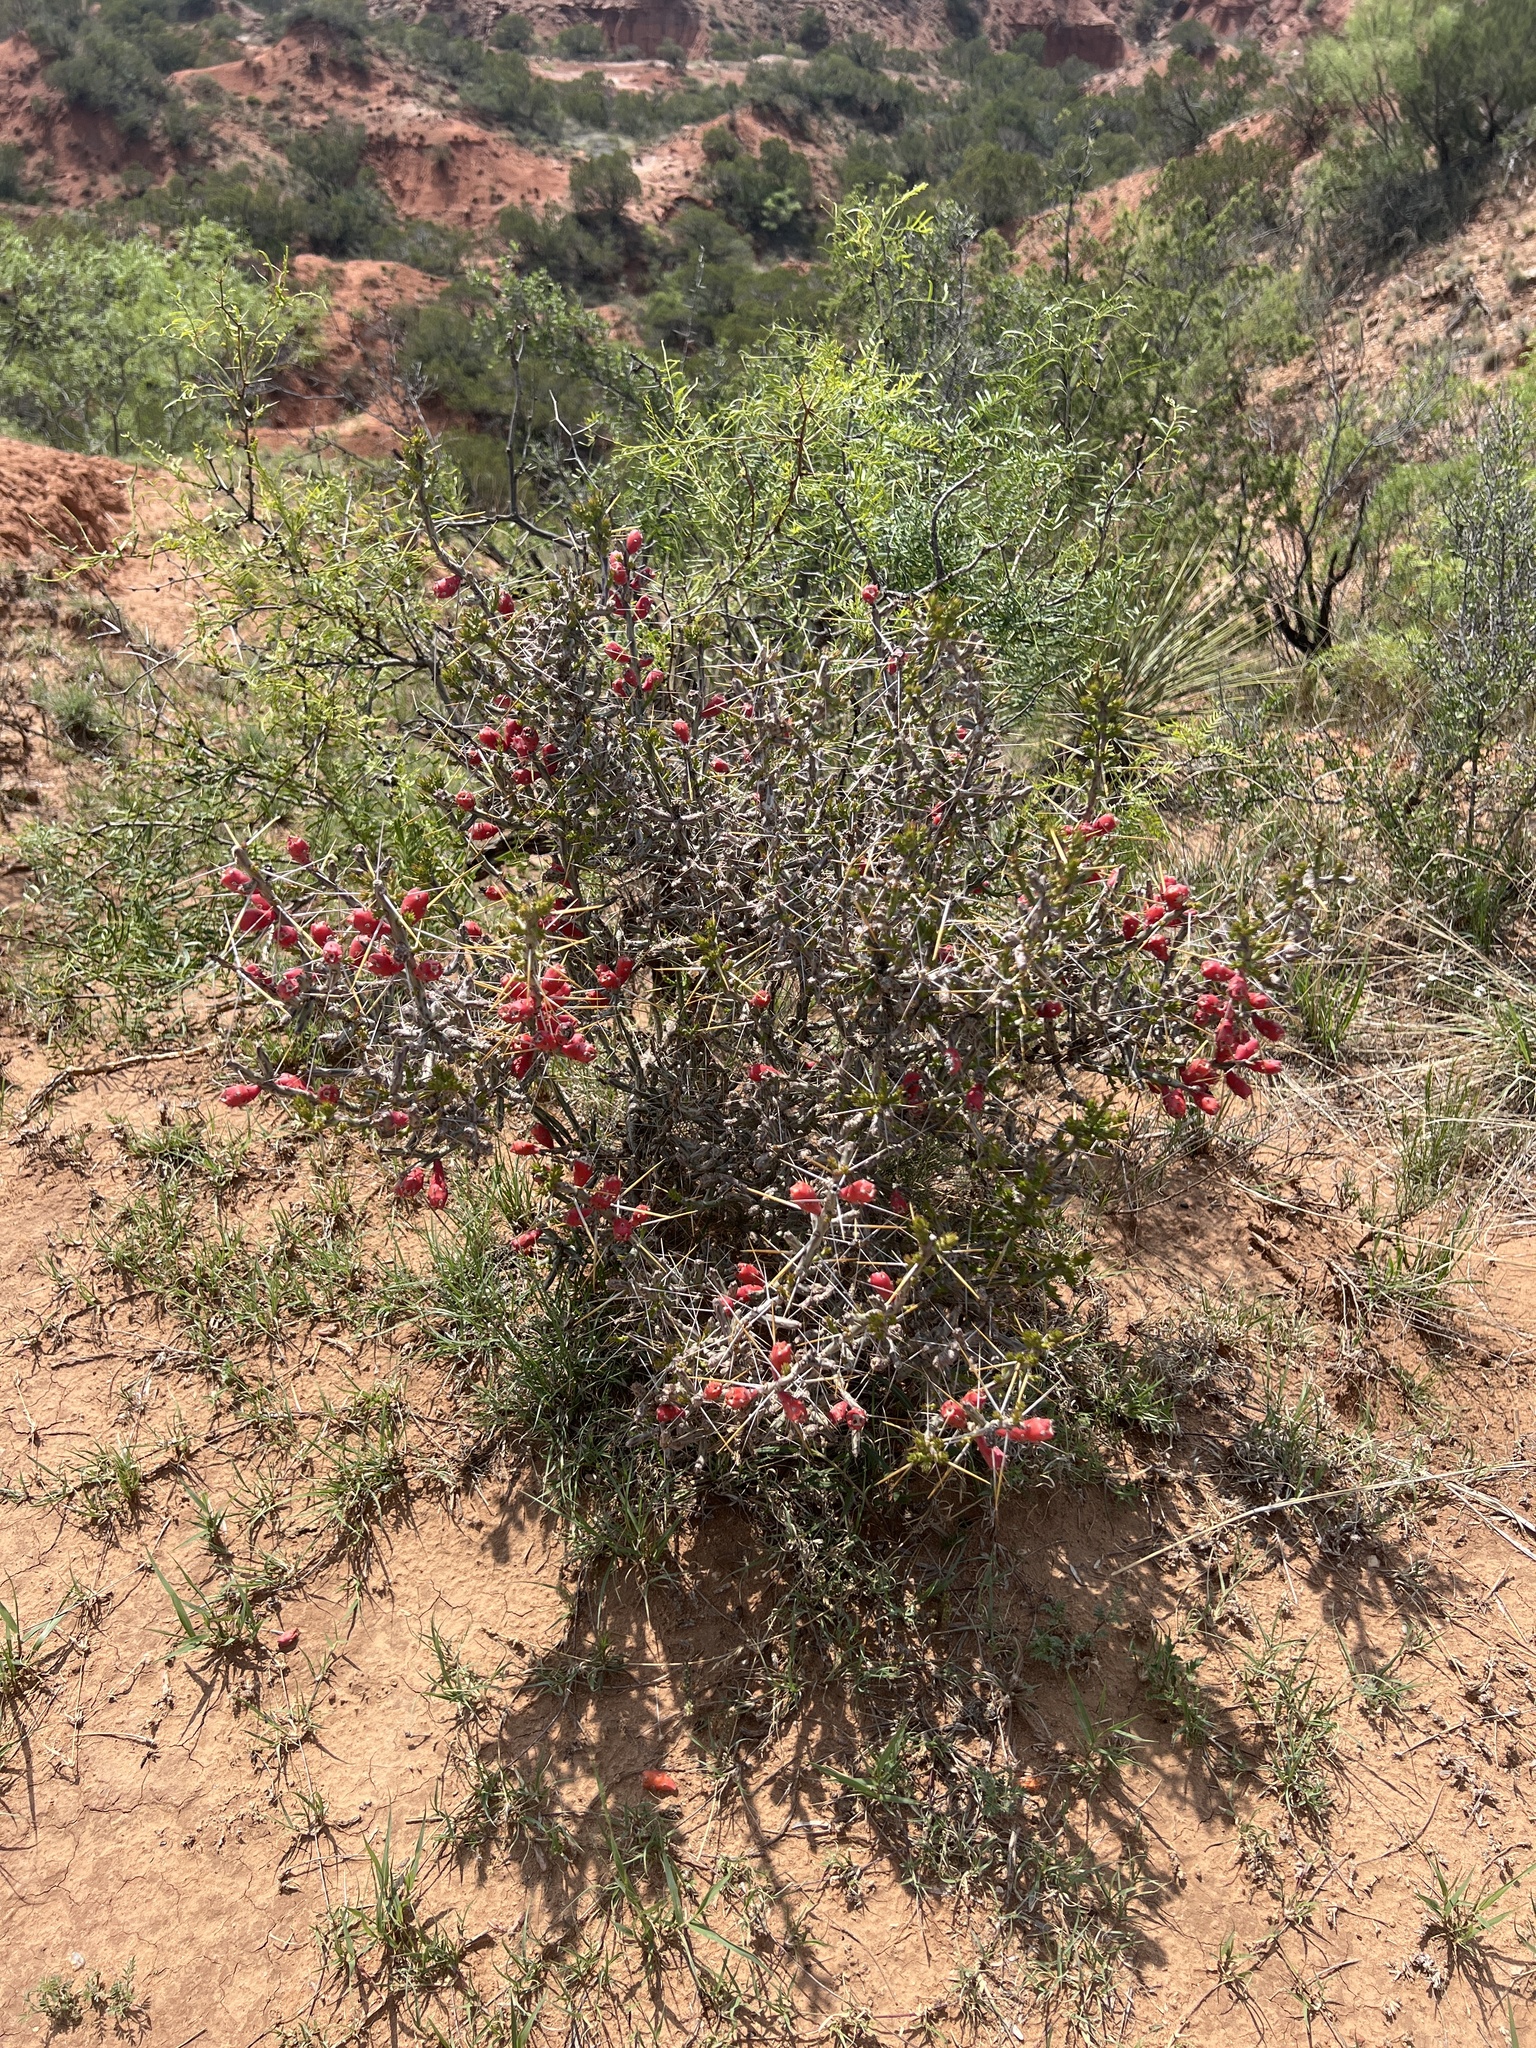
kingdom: Plantae
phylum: Tracheophyta
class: Magnoliopsida
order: Caryophyllales
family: Cactaceae
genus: Cylindropuntia
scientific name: Cylindropuntia leptocaulis
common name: Christmas cactus
